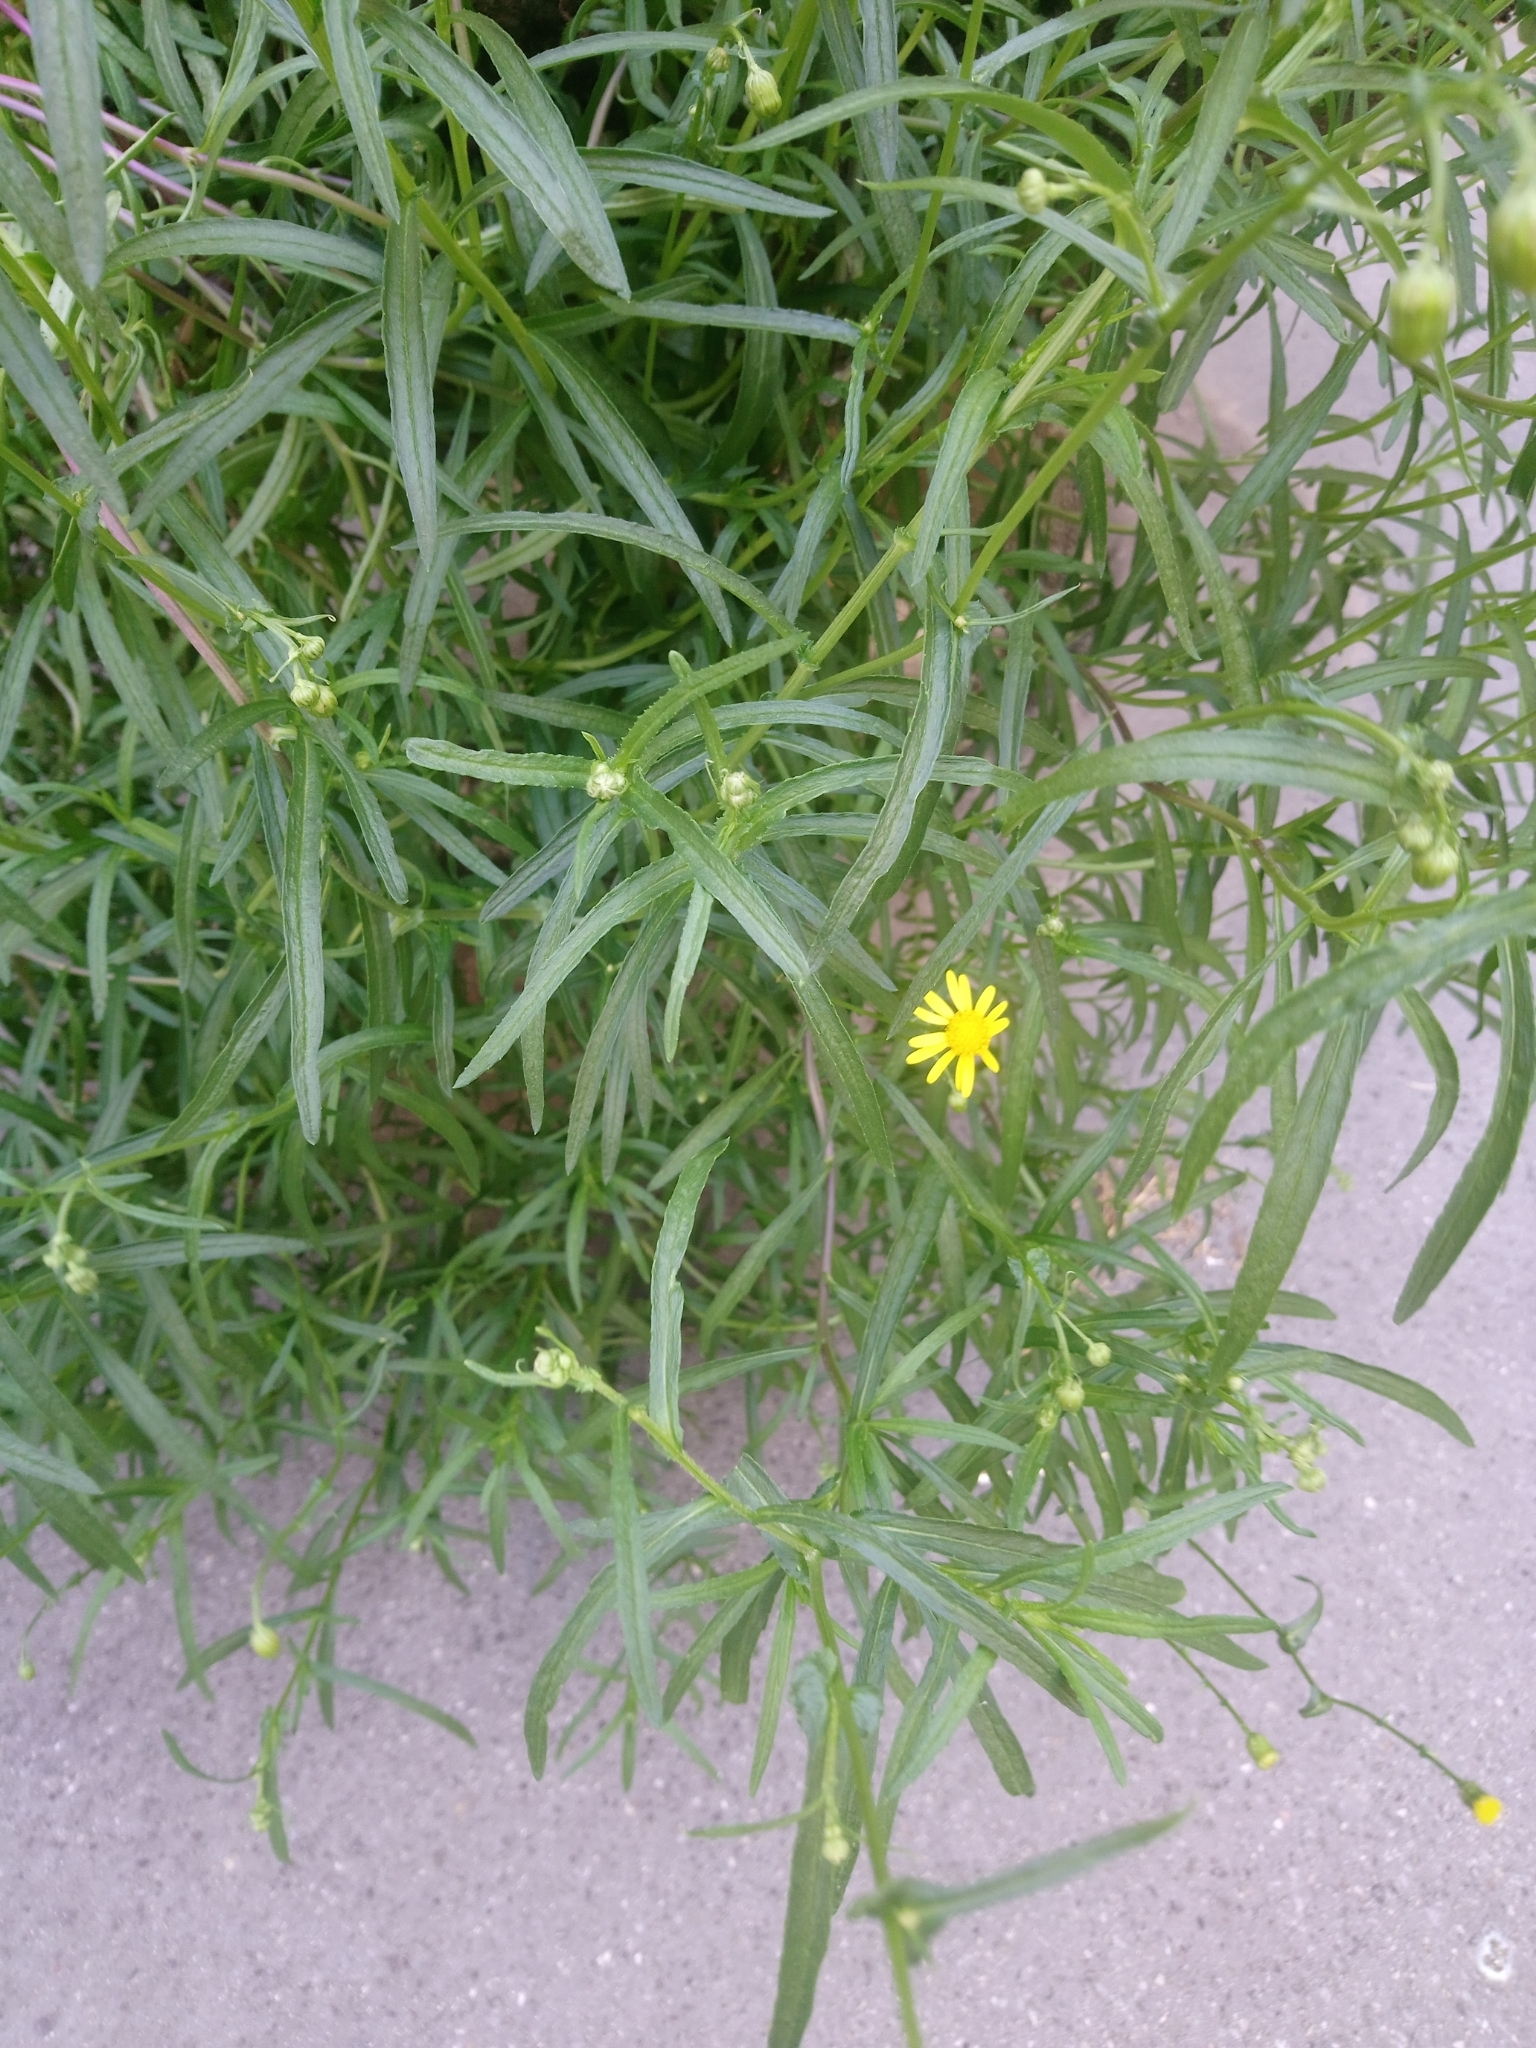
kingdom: Plantae
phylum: Tracheophyta
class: Magnoliopsida
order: Asterales
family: Asteraceae
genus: Senecio
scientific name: Senecio inaequidens
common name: Narrow-leaved ragwort
